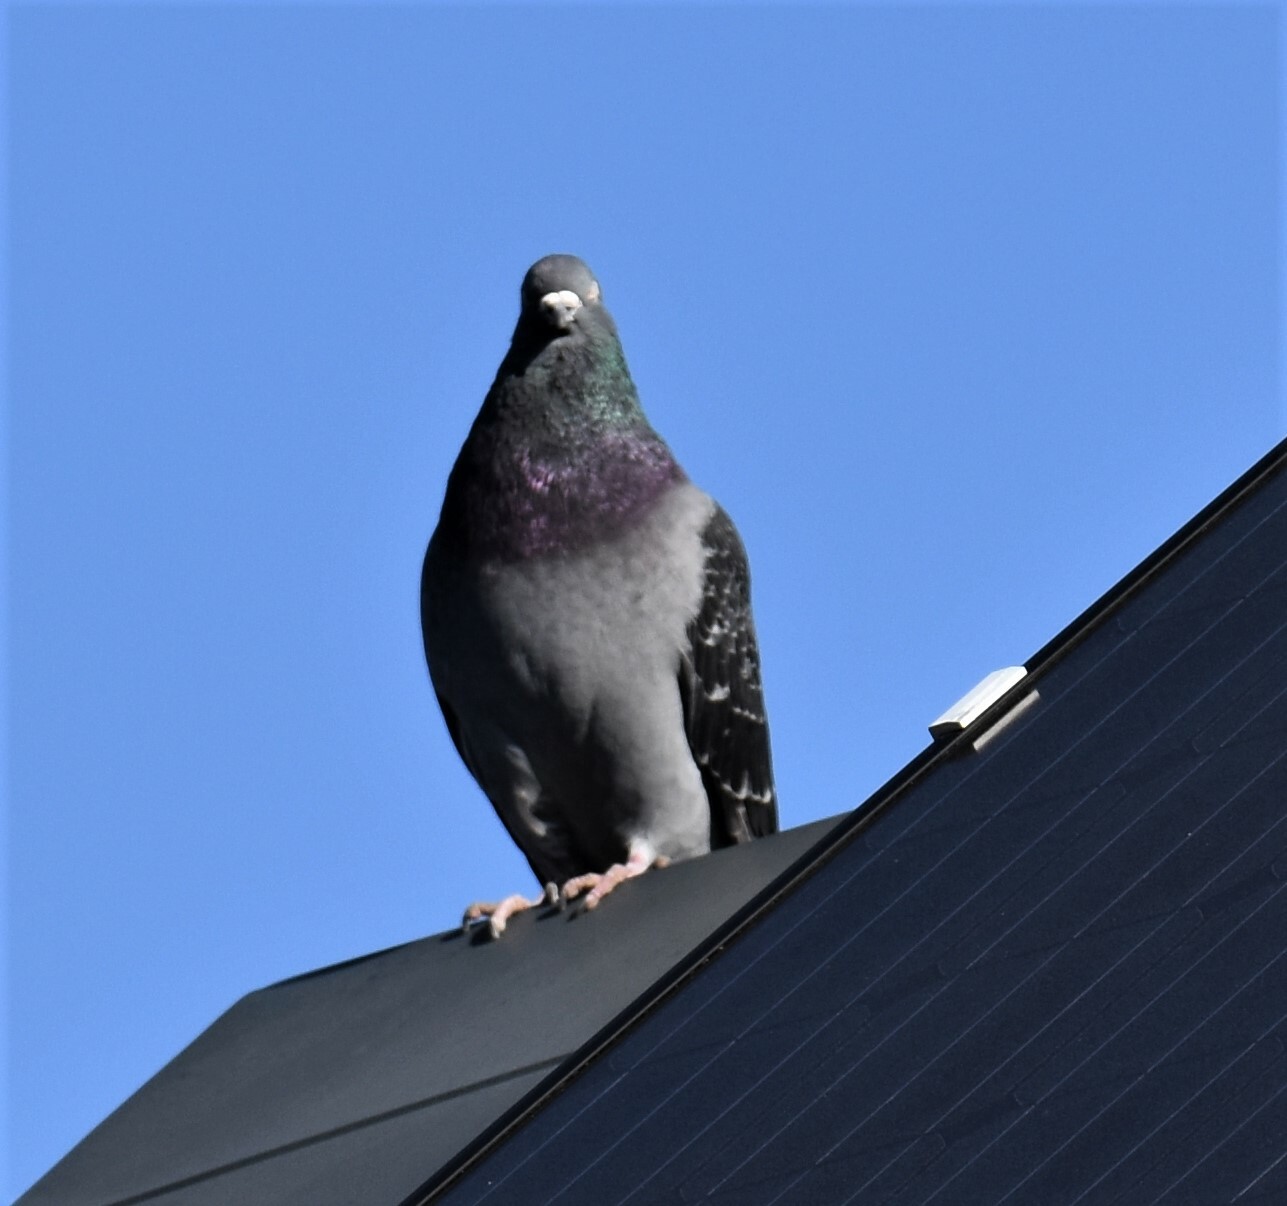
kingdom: Animalia
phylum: Chordata
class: Aves
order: Columbiformes
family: Columbidae
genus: Columba
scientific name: Columba livia
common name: Rock pigeon
